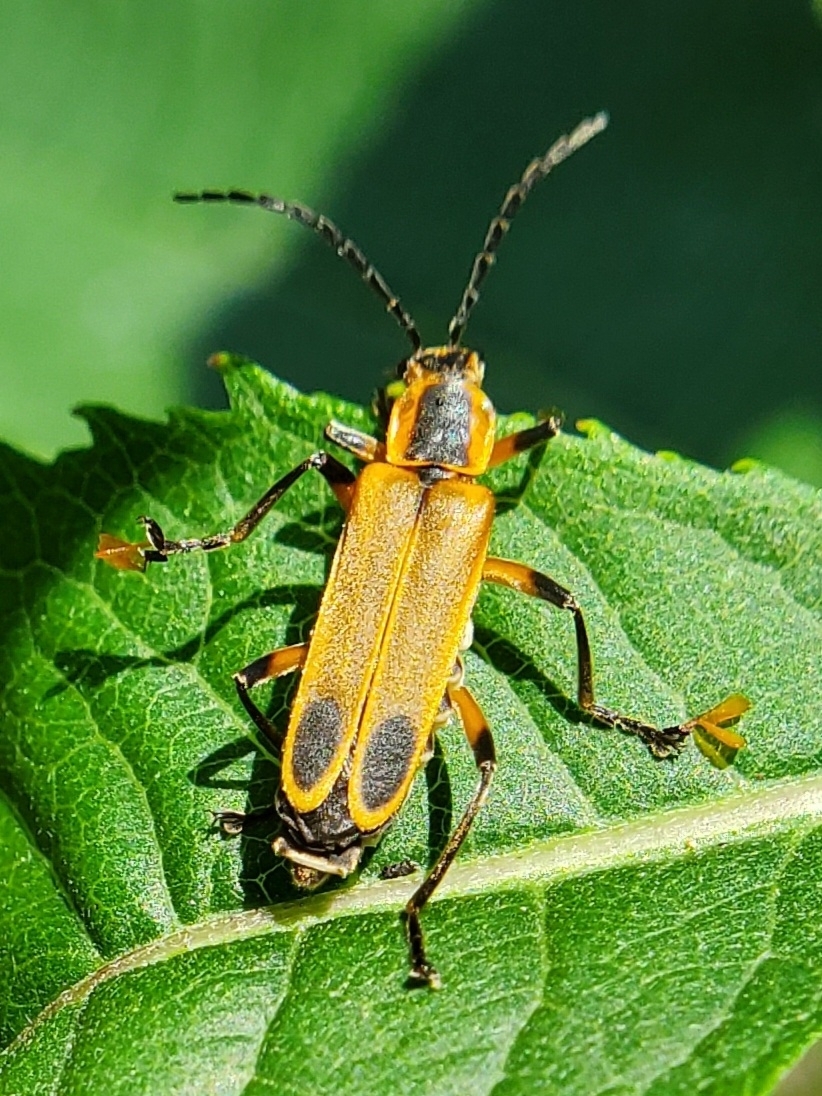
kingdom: Animalia
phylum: Arthropoda
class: Insecta
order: Coleoptera
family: Cantharidae
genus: Chauliognathus
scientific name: Chauliognathus marginatus
